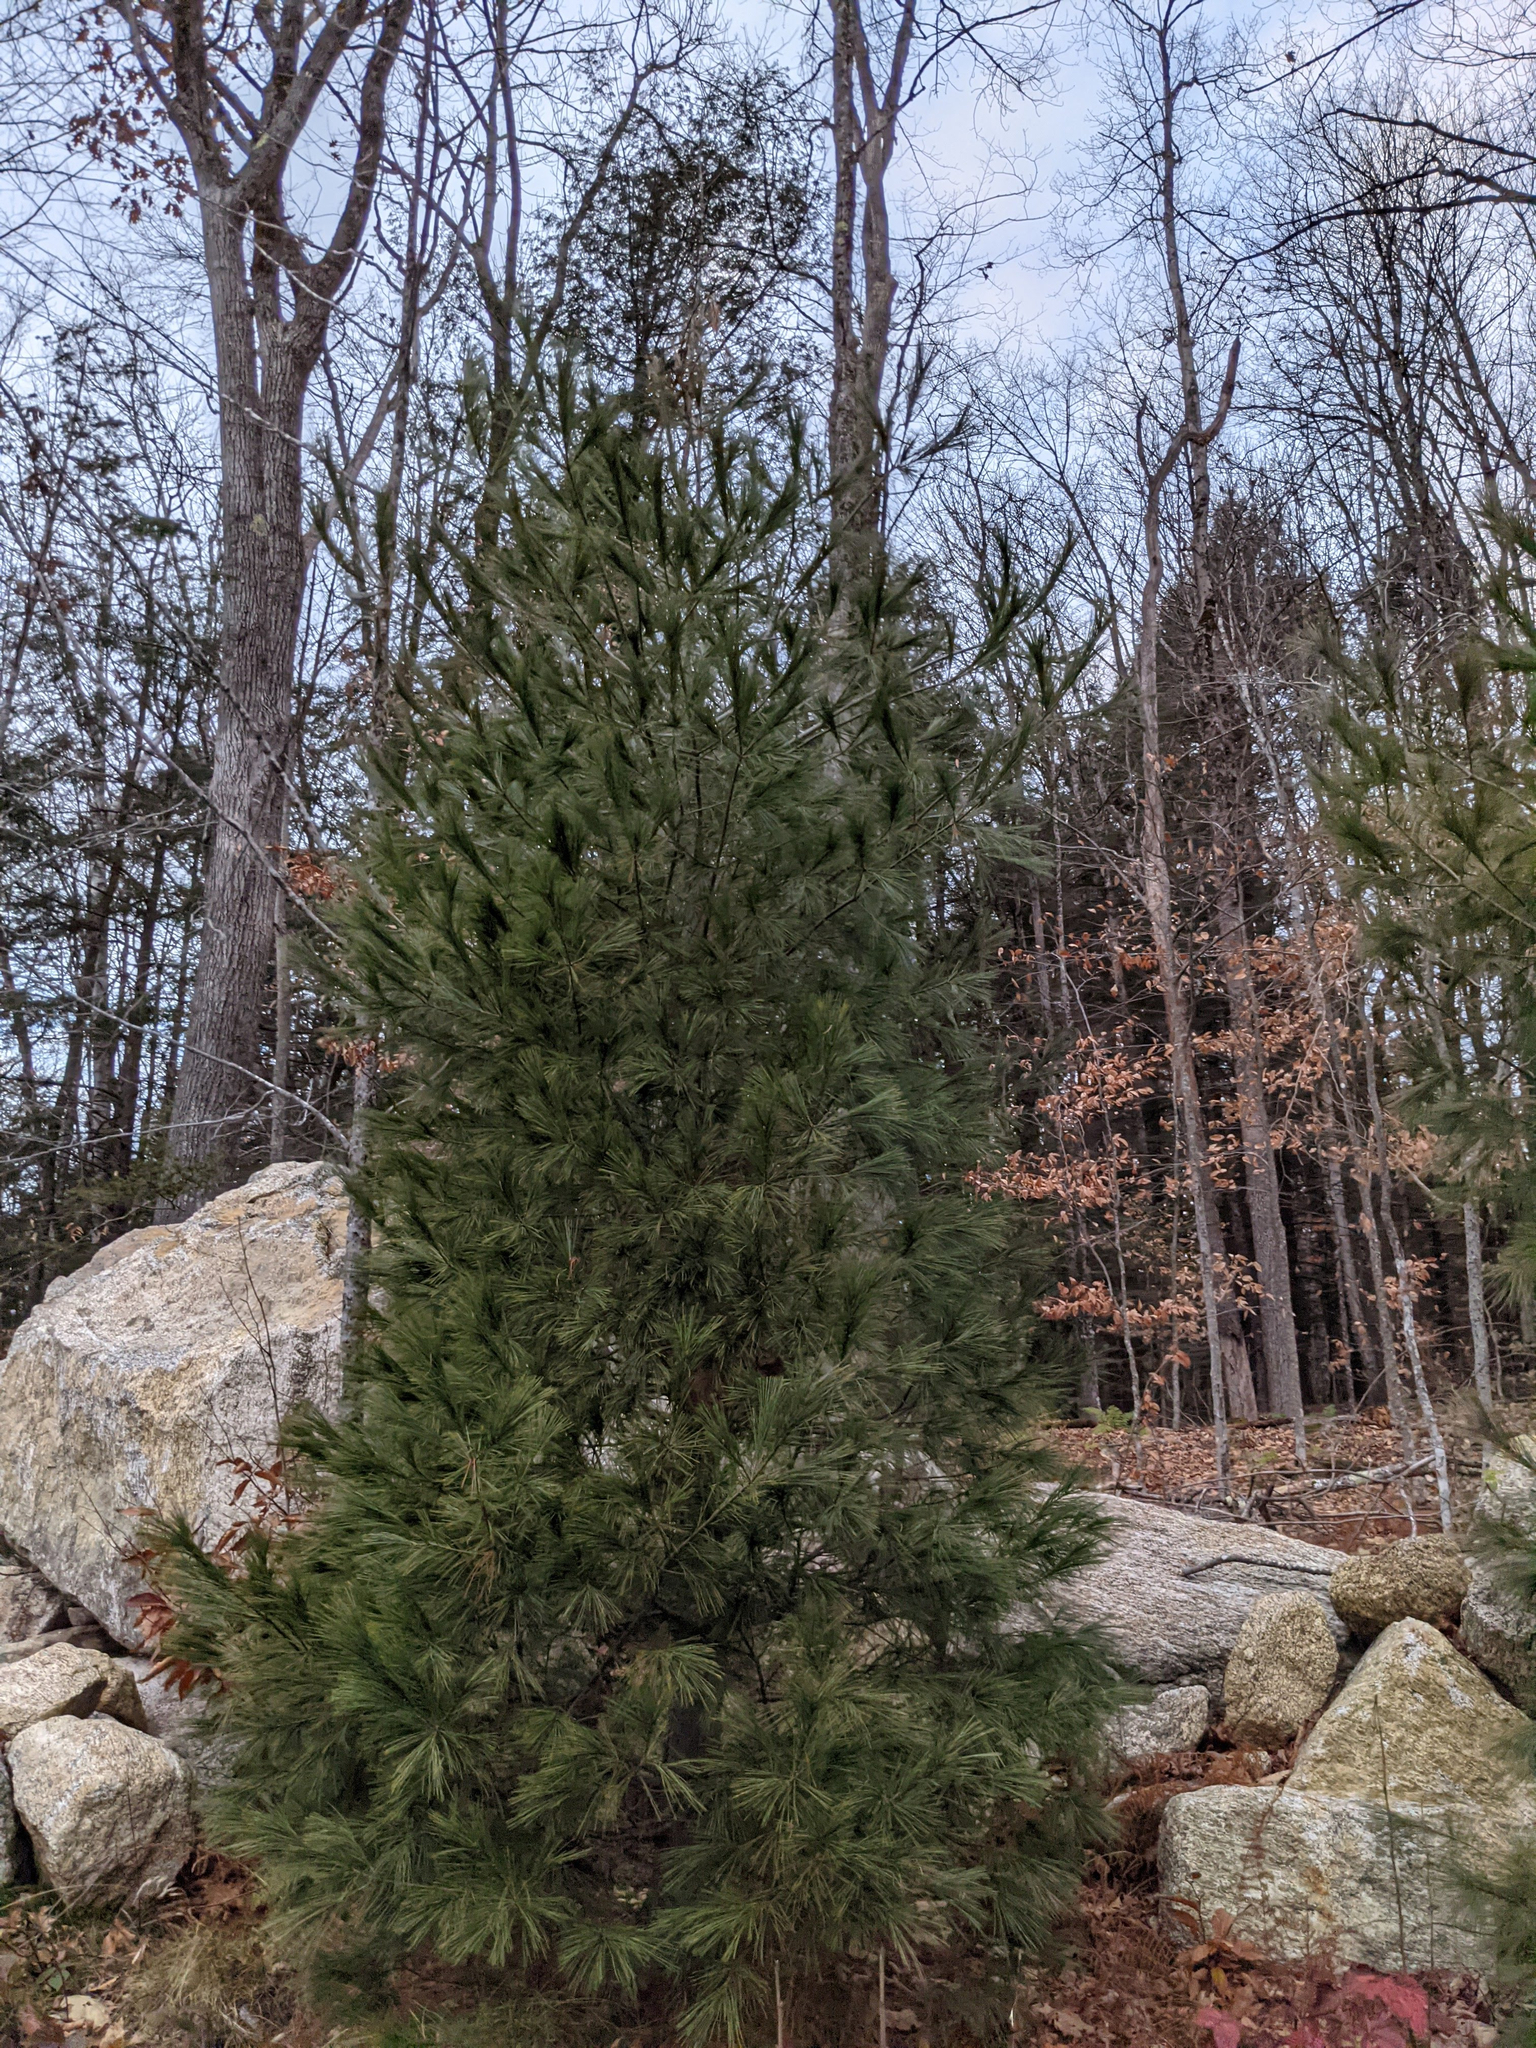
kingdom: Plantae
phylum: Tracheophyta
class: Pinopsida
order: Pinales
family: Pinaceae
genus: Pinus
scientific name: Pinus strobus
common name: Weymouth pine
